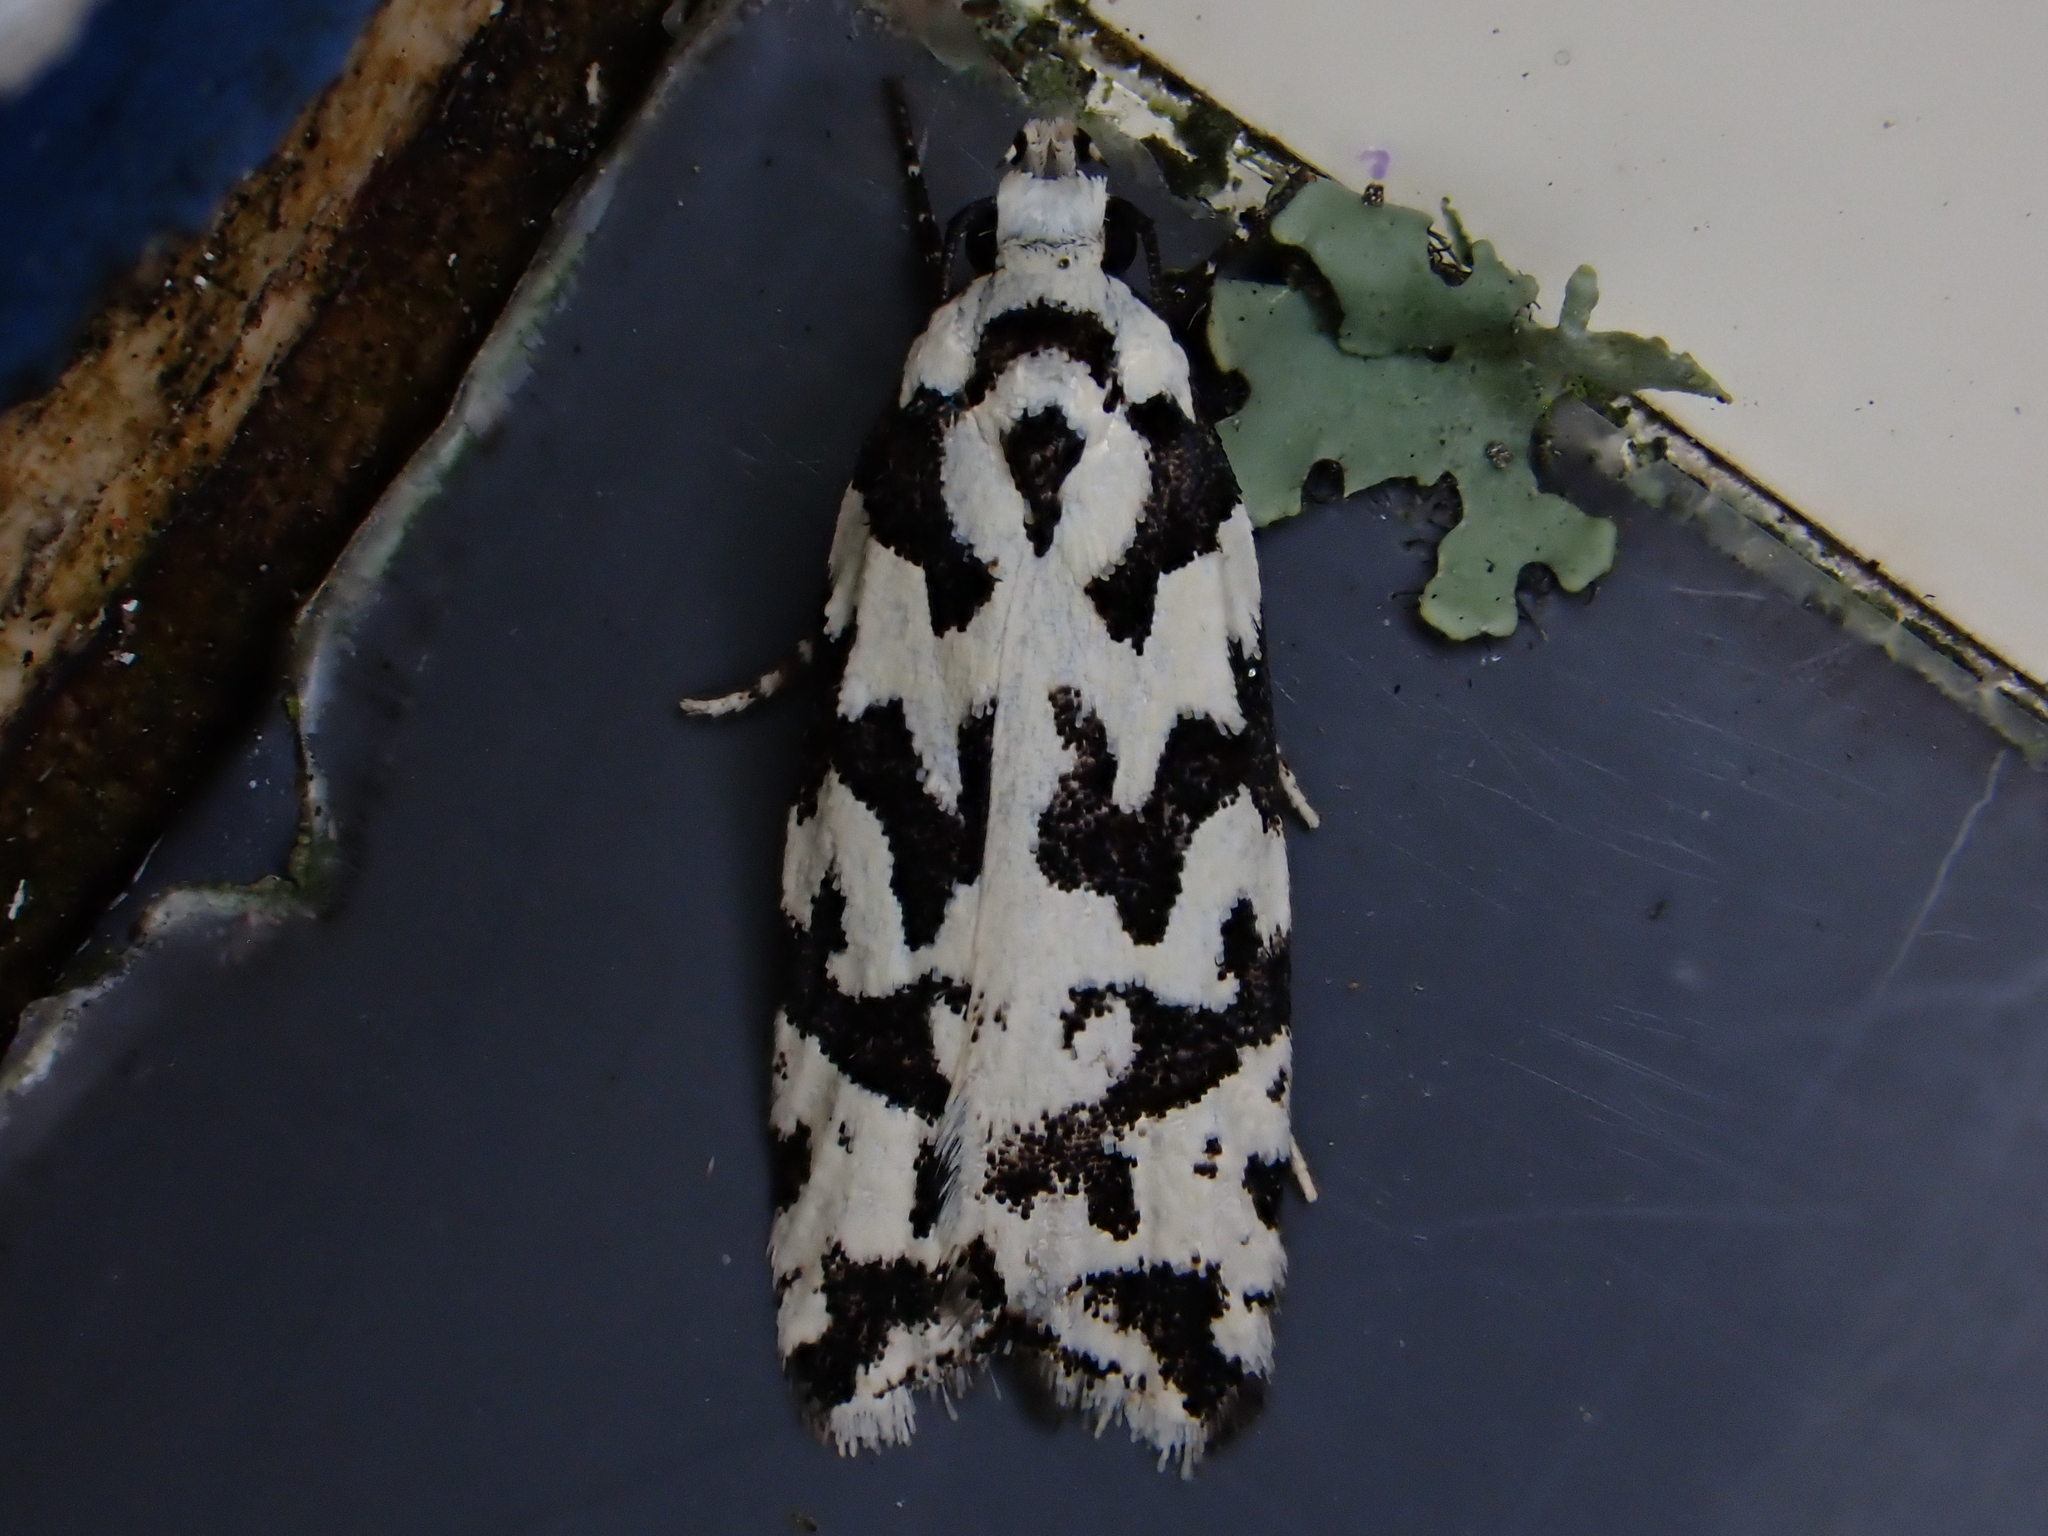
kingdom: Animalia
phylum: Arthropoda
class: Insecta
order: Lepidoptera
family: Oecophoridae
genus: Izatha
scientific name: Izatha
